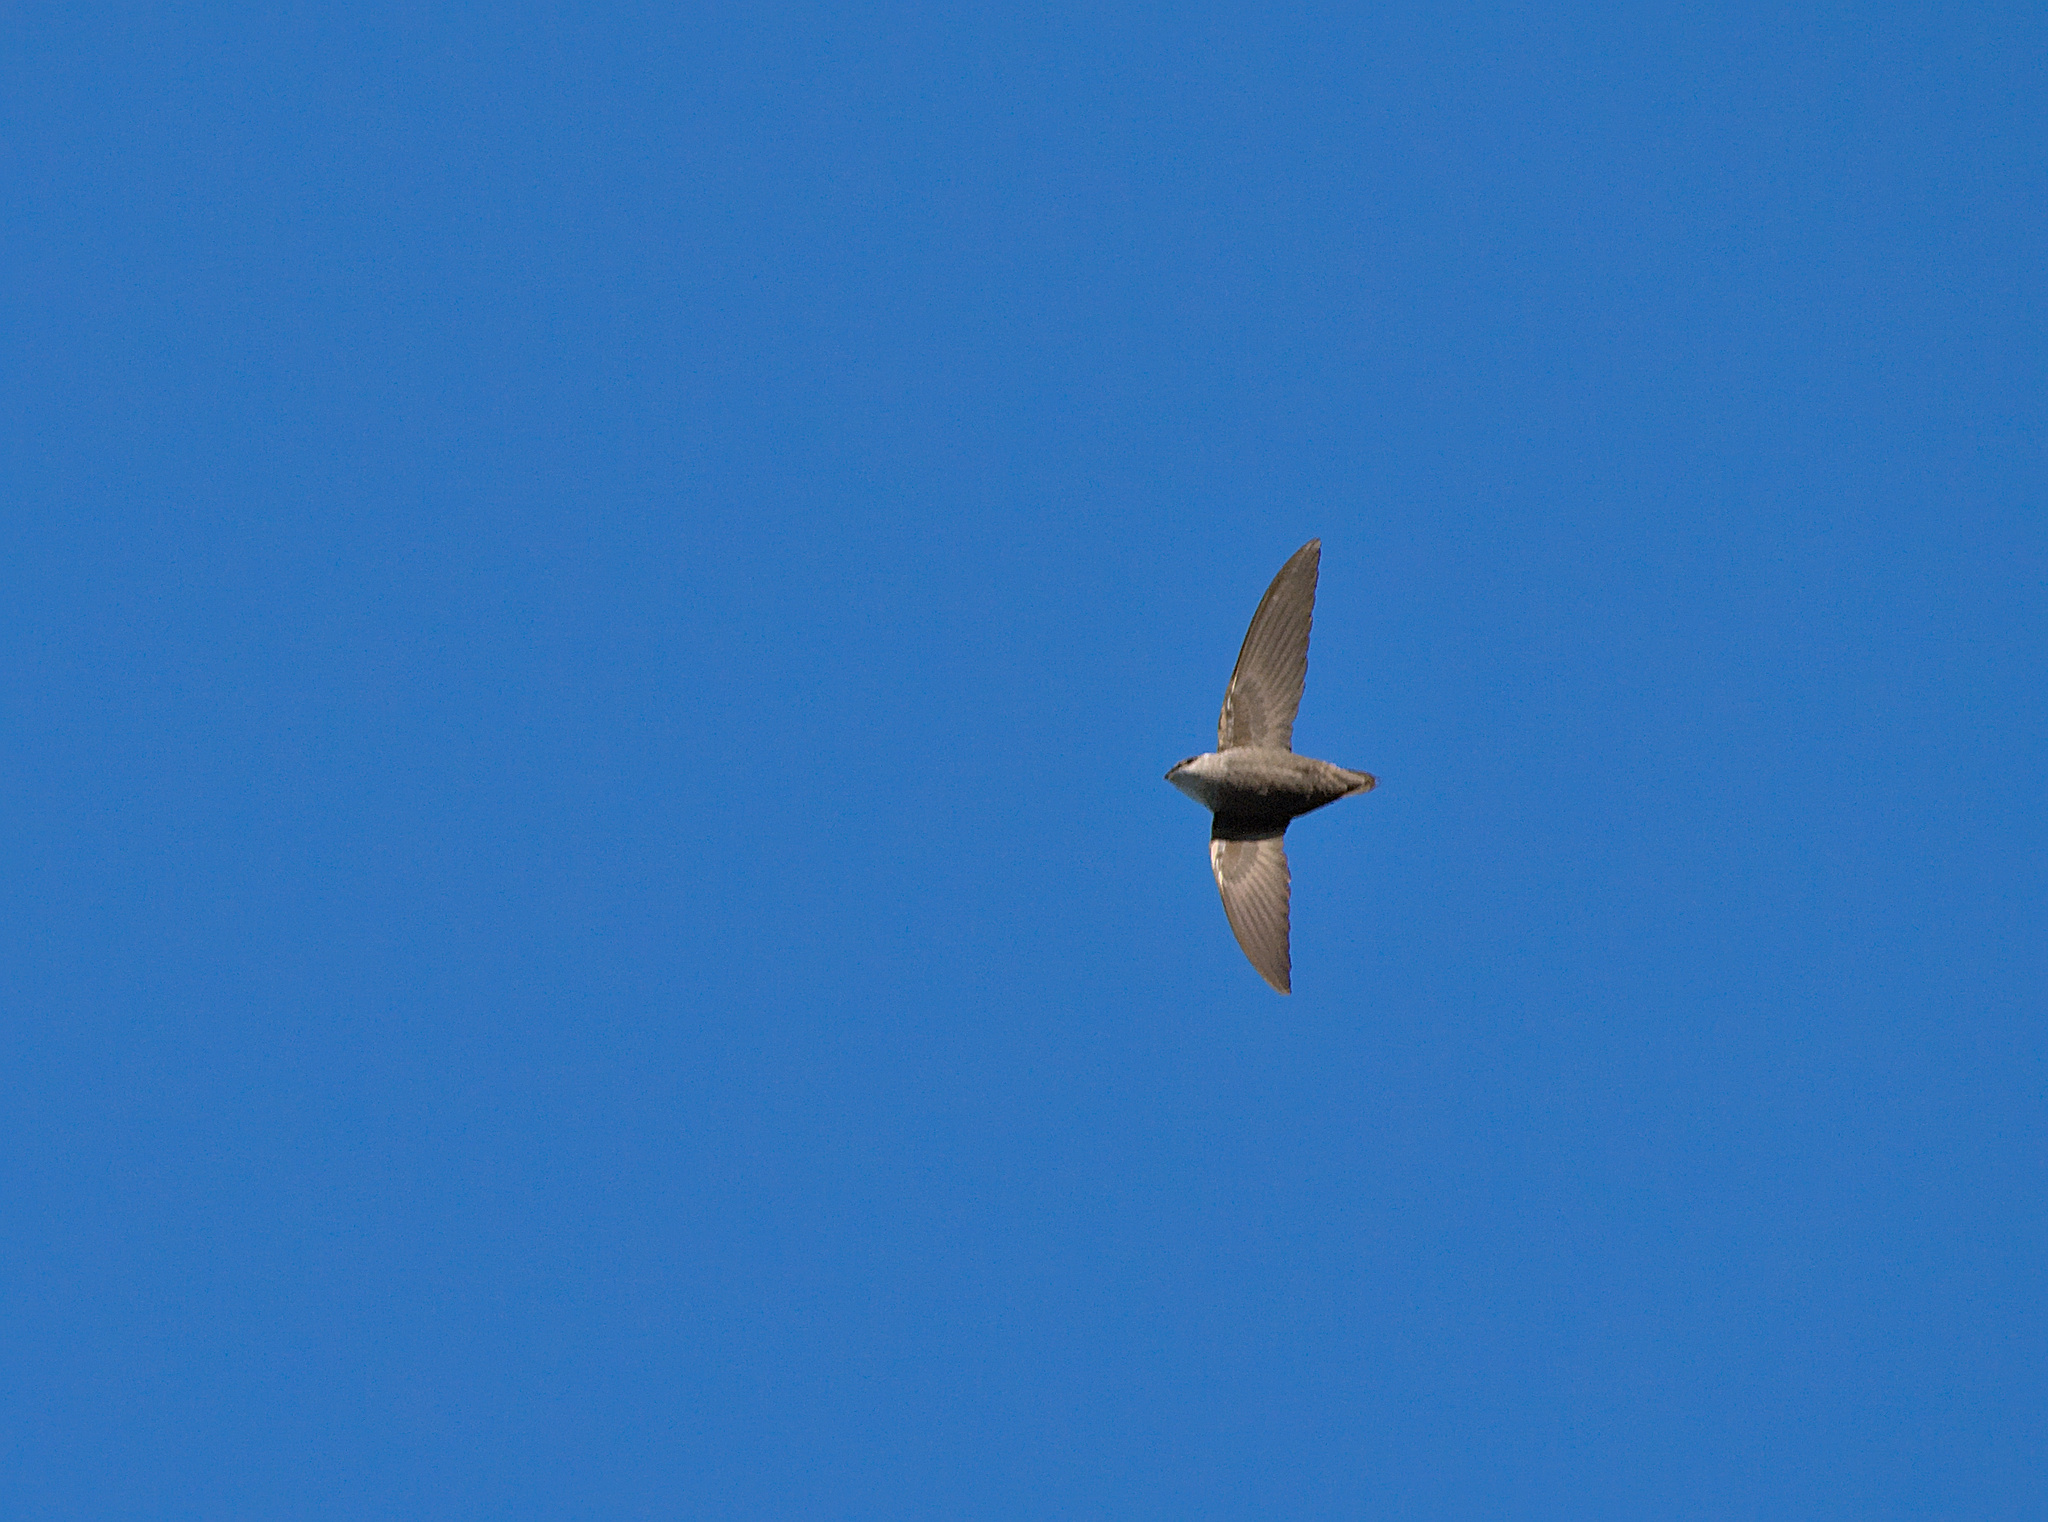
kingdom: Animalia
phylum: Chordata
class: Aves
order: Apodiformes
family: Apodidae
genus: Chaetura
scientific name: Chaetura pelagica
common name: Chimney swift
